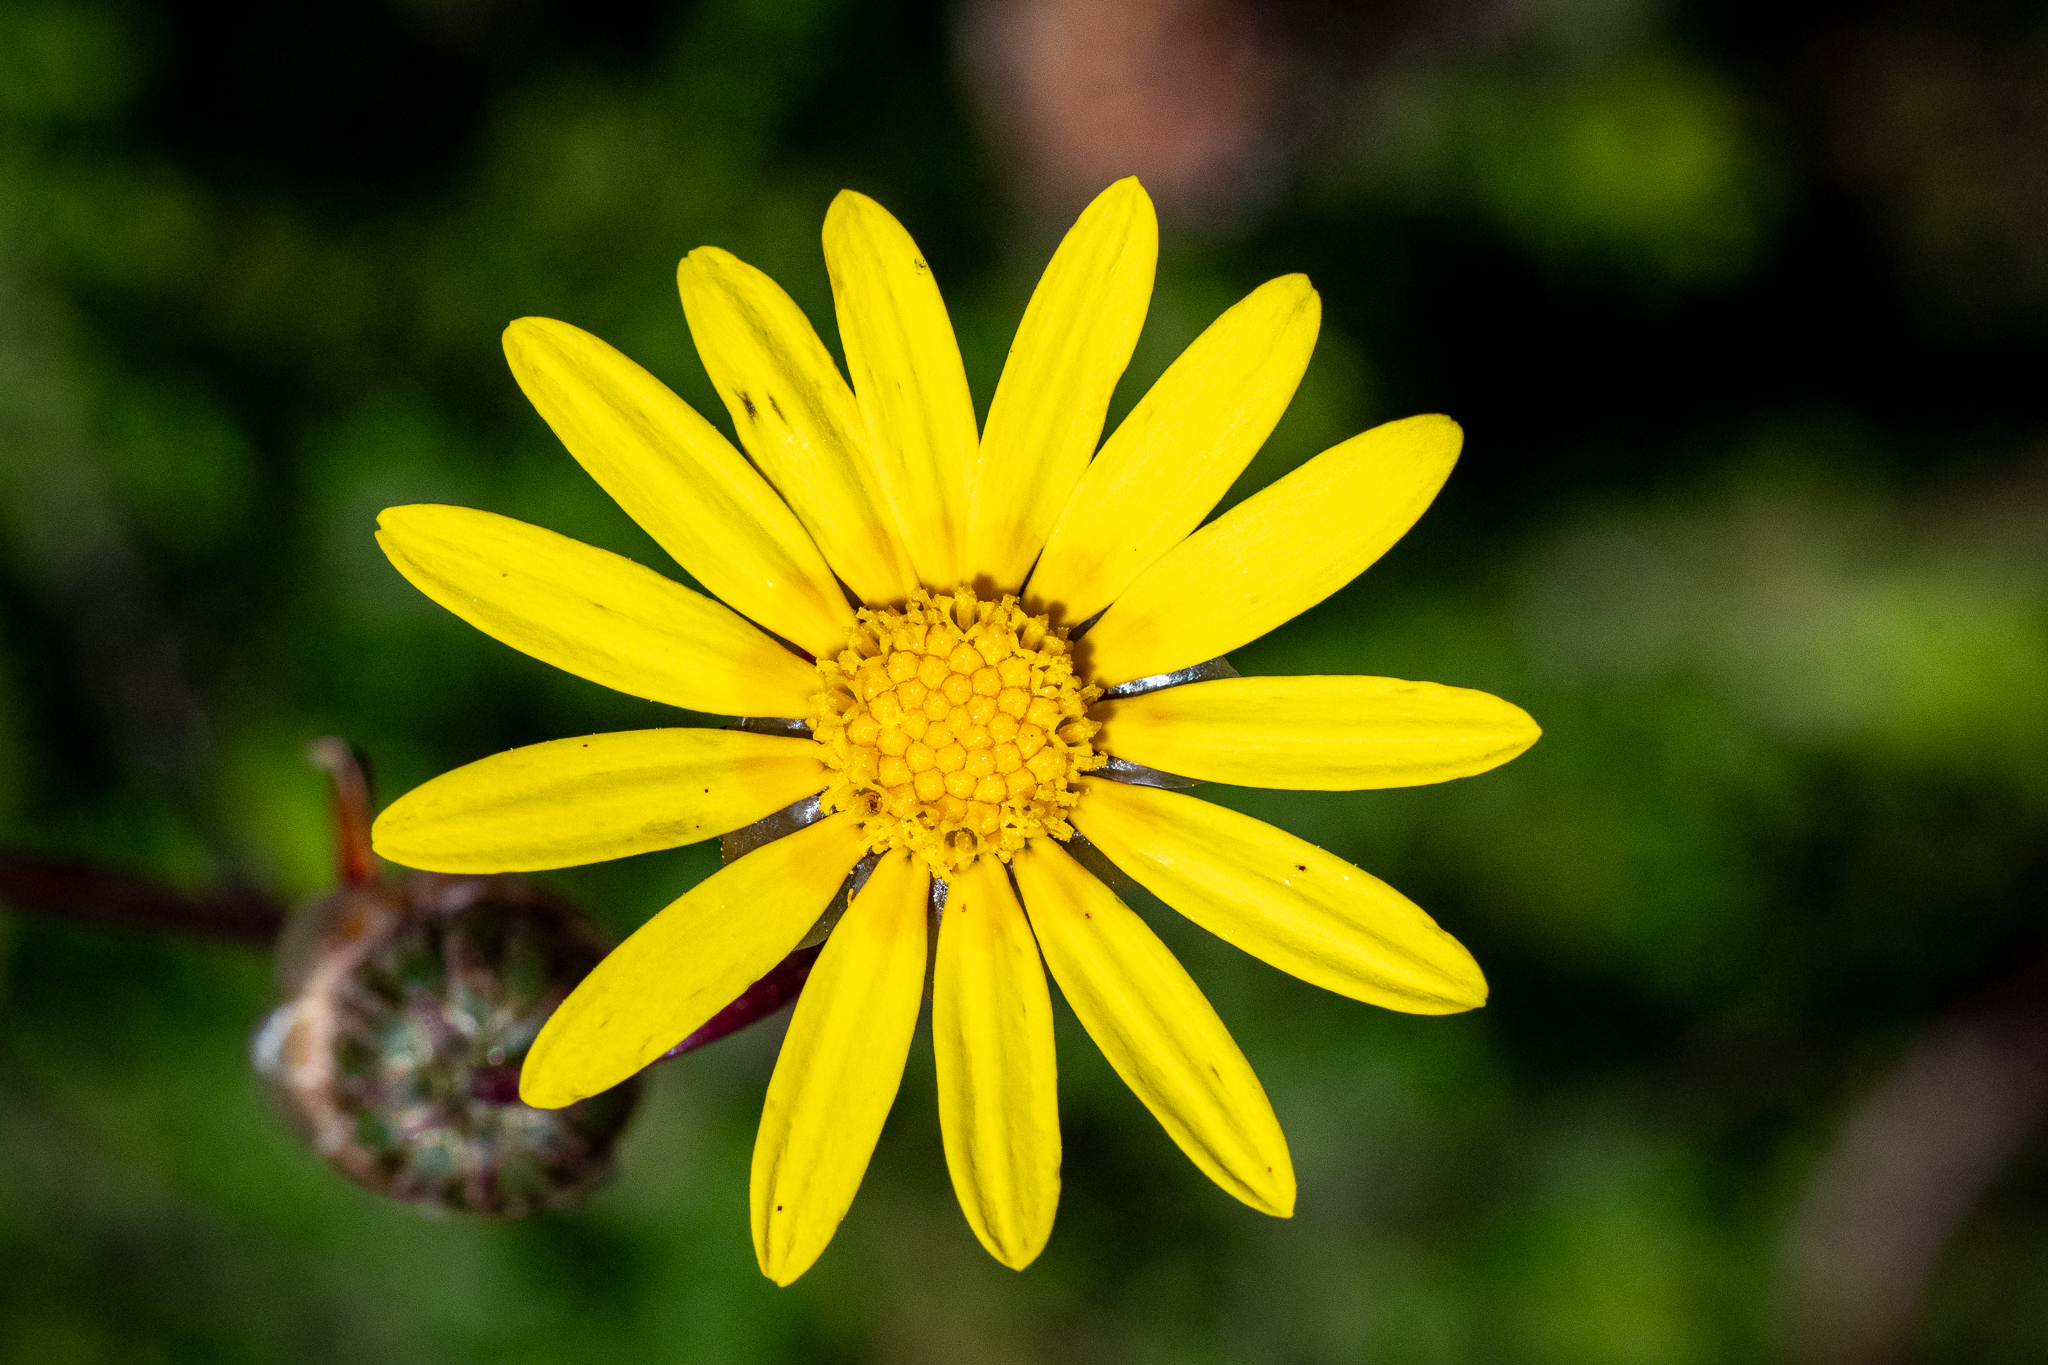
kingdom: Plantae
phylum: Tracheophyta
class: Magnoliopsida
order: Asterales
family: Asteraceae
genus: Ursinia
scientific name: Ursinia dentata
